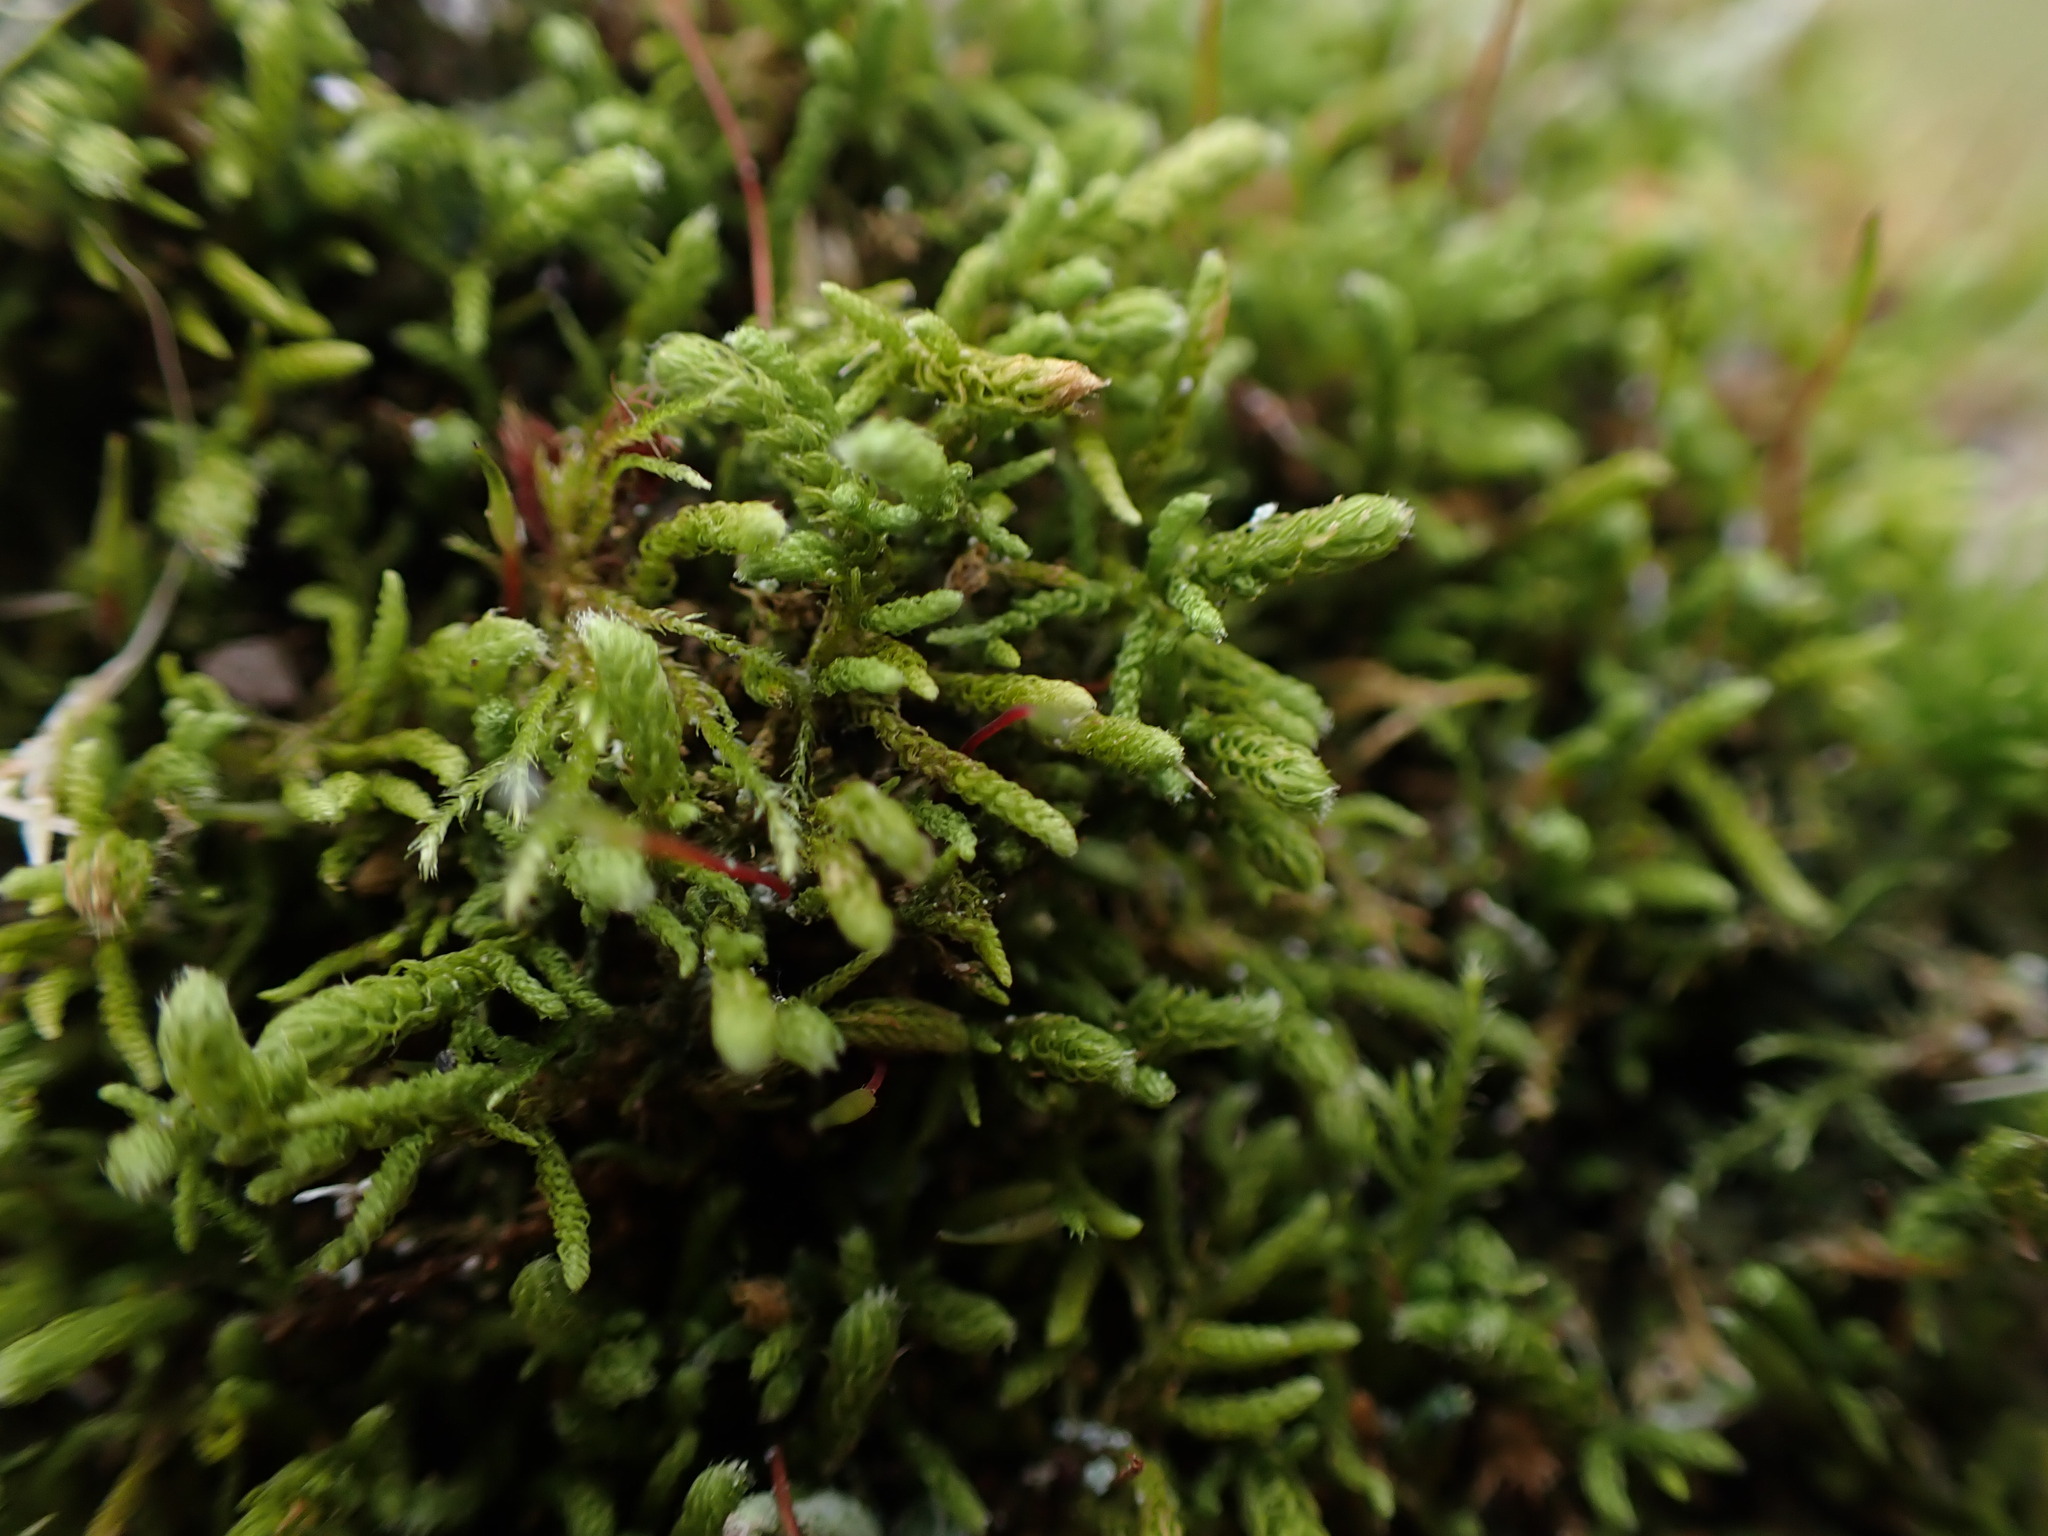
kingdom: Plantae
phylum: Bryophyta
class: Bryopsida
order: Hypnales
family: Brachytheciaceae
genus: Claopodium
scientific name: Claopodium bolanderi
